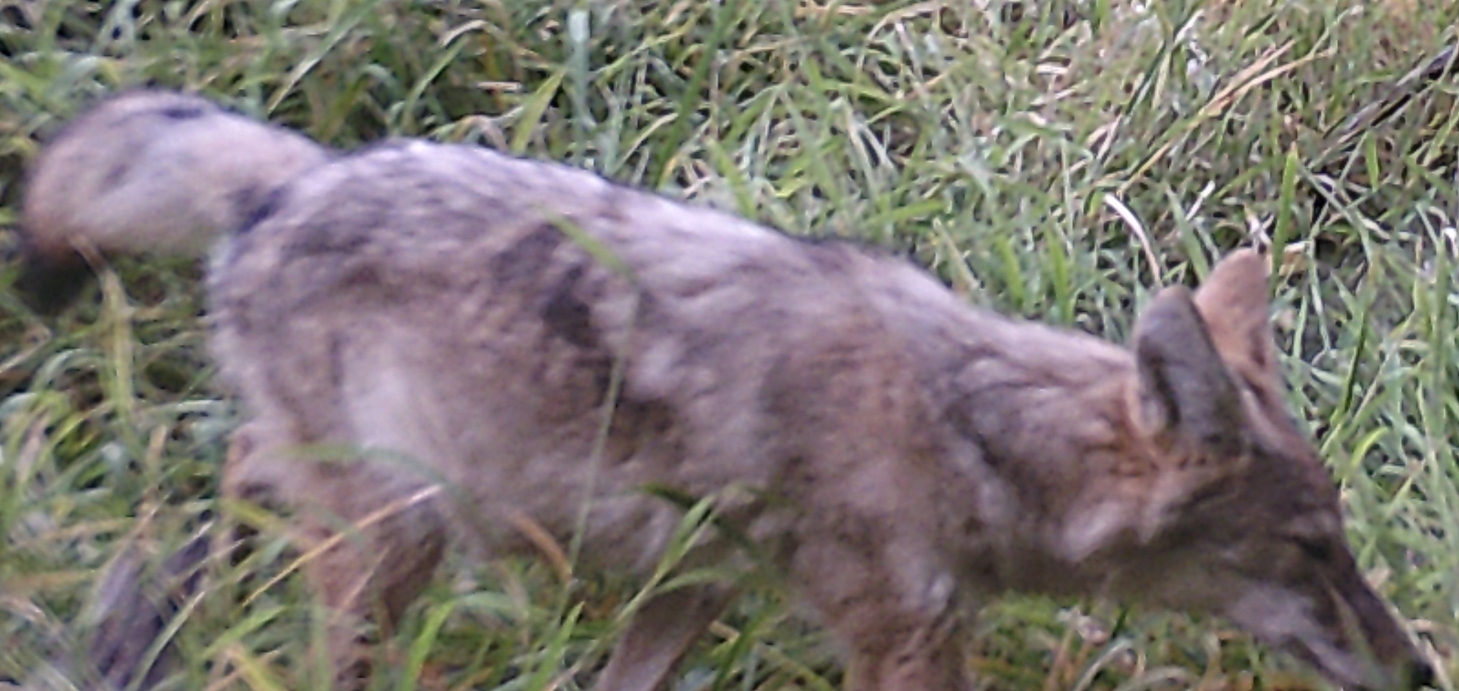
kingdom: Animalia
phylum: Chordata
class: Mammalia
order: Carnivora
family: Canidae
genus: Canis
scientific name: Canis latrans
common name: Coyote
